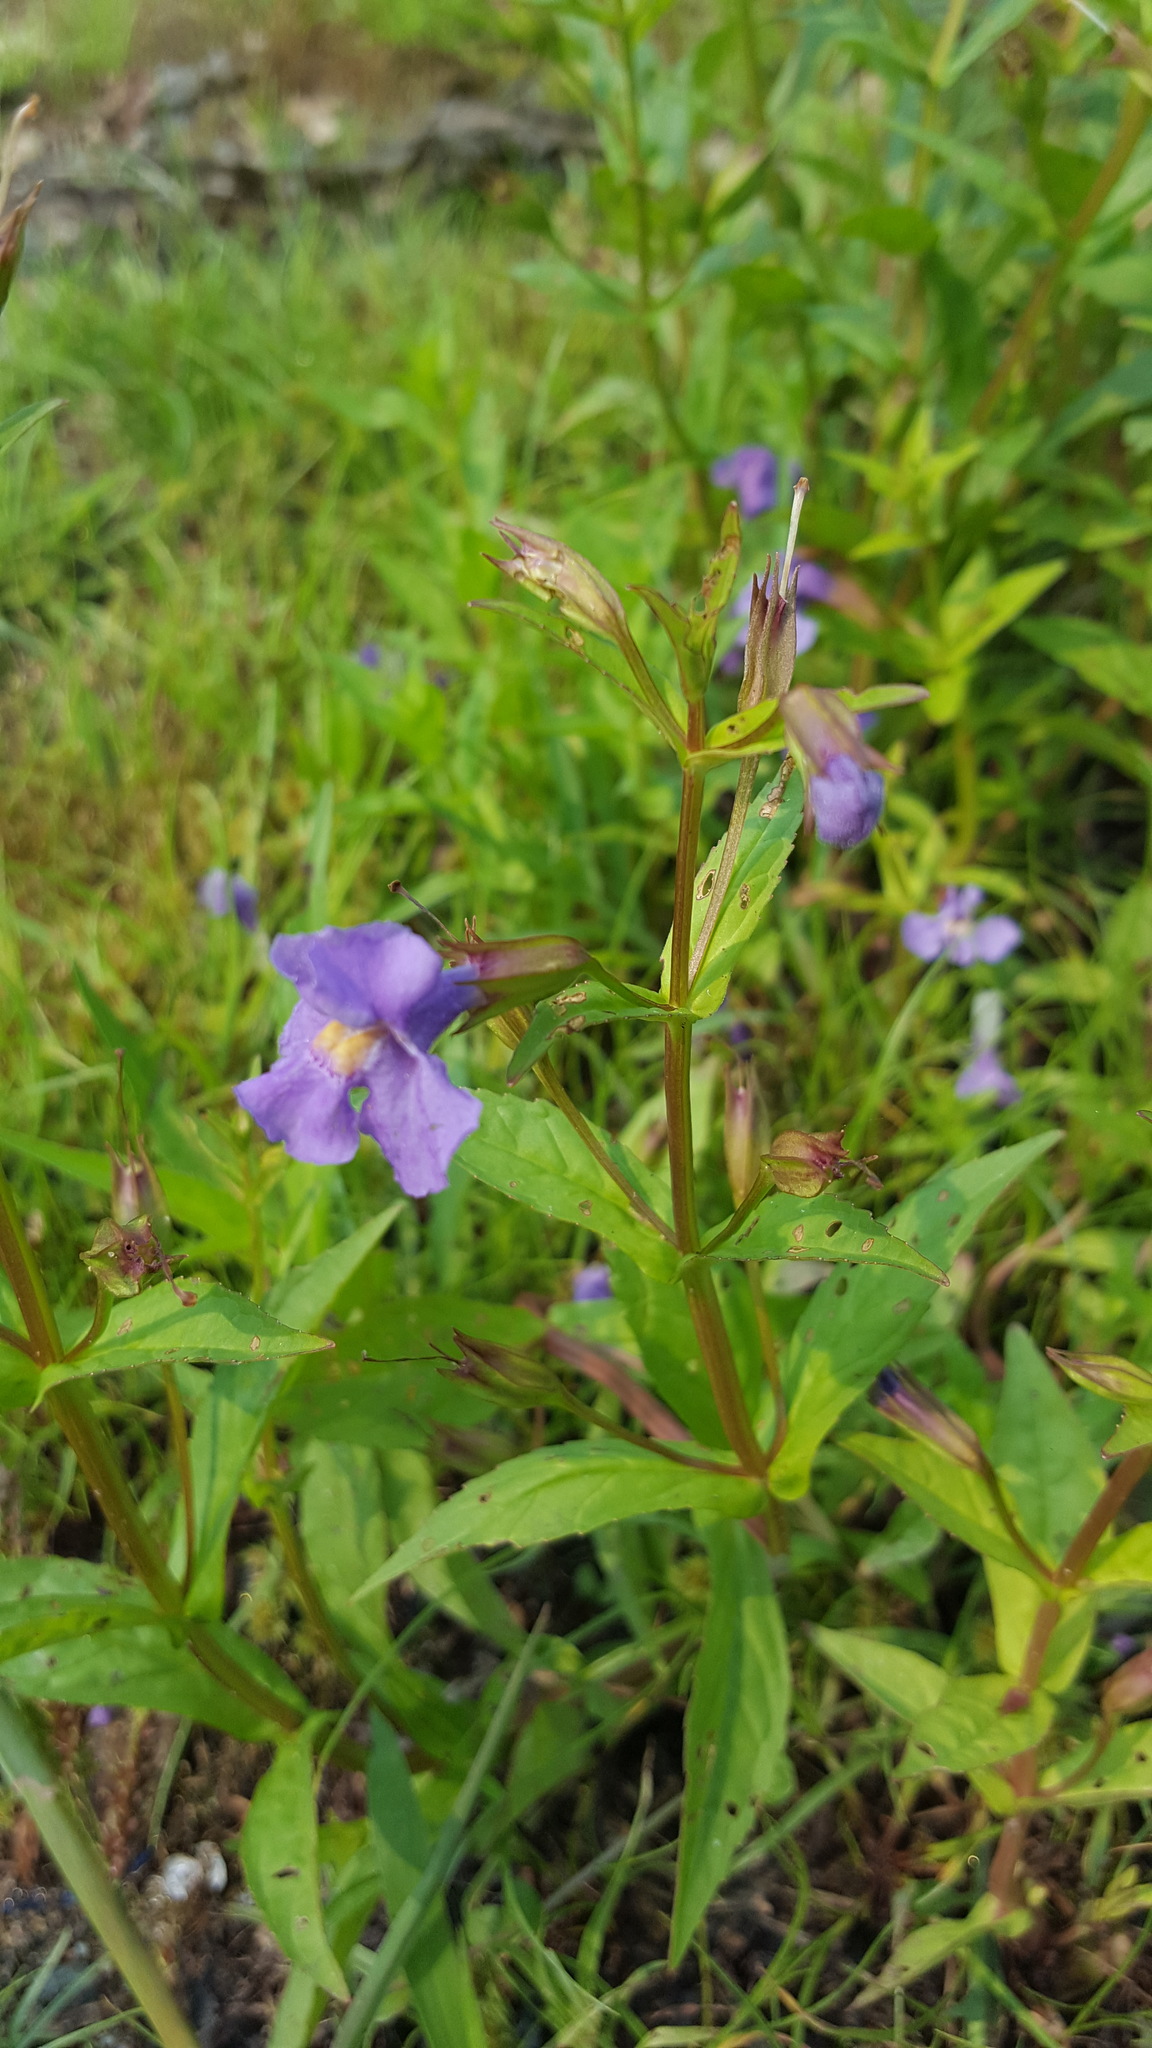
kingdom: Plantae
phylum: Tracheophyta
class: Magnoliopsida
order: Lamiales
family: Phrymaceae
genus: Mimulus
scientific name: Mimulus ringens
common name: Allegheny monkeyflower
